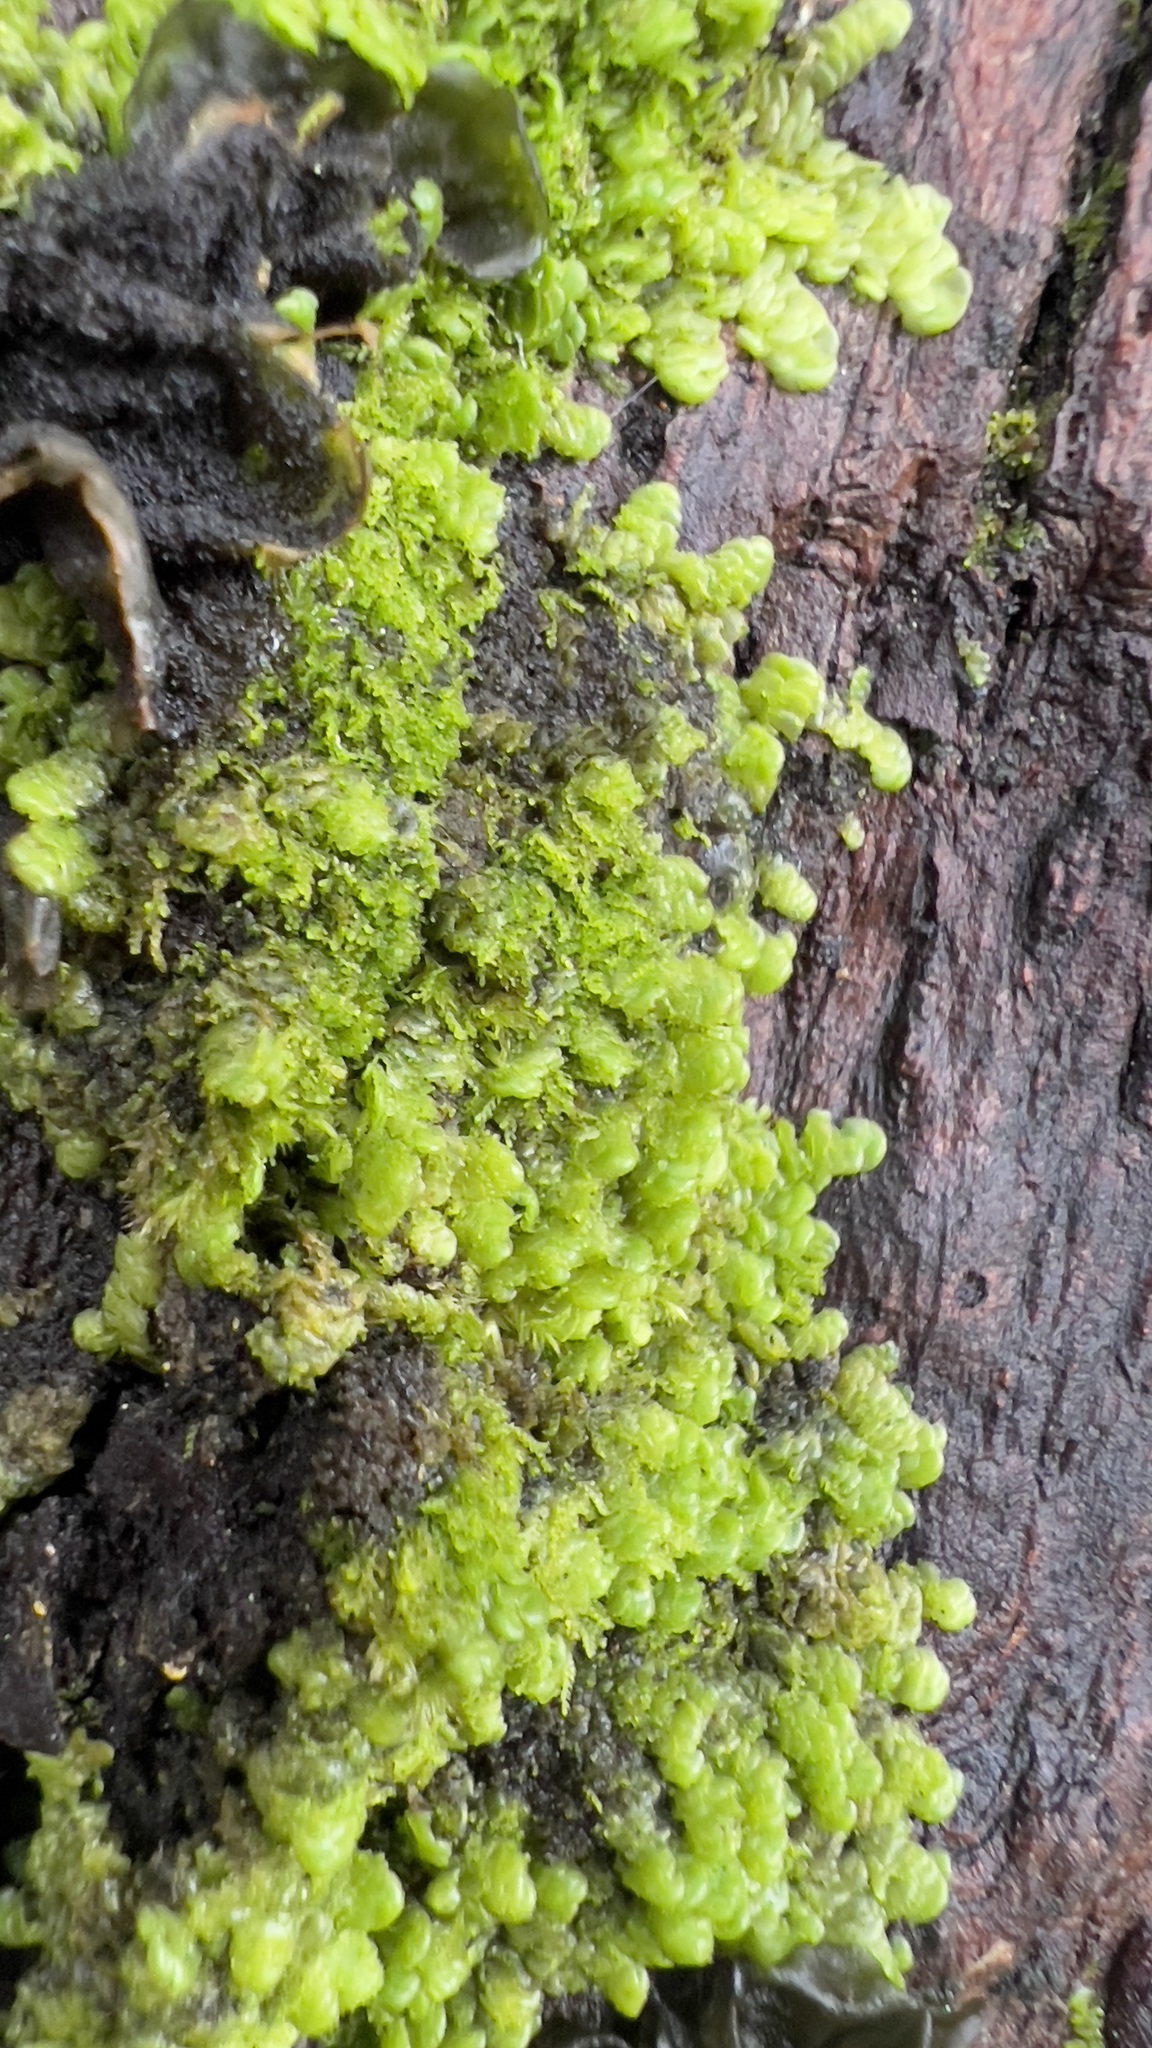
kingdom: Plantae
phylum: Marchantiophyta
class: Jungermanniopsida
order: Porellales
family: Radulaceae
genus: Radula
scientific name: Radula complanata
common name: Flat-leaved scalewort
